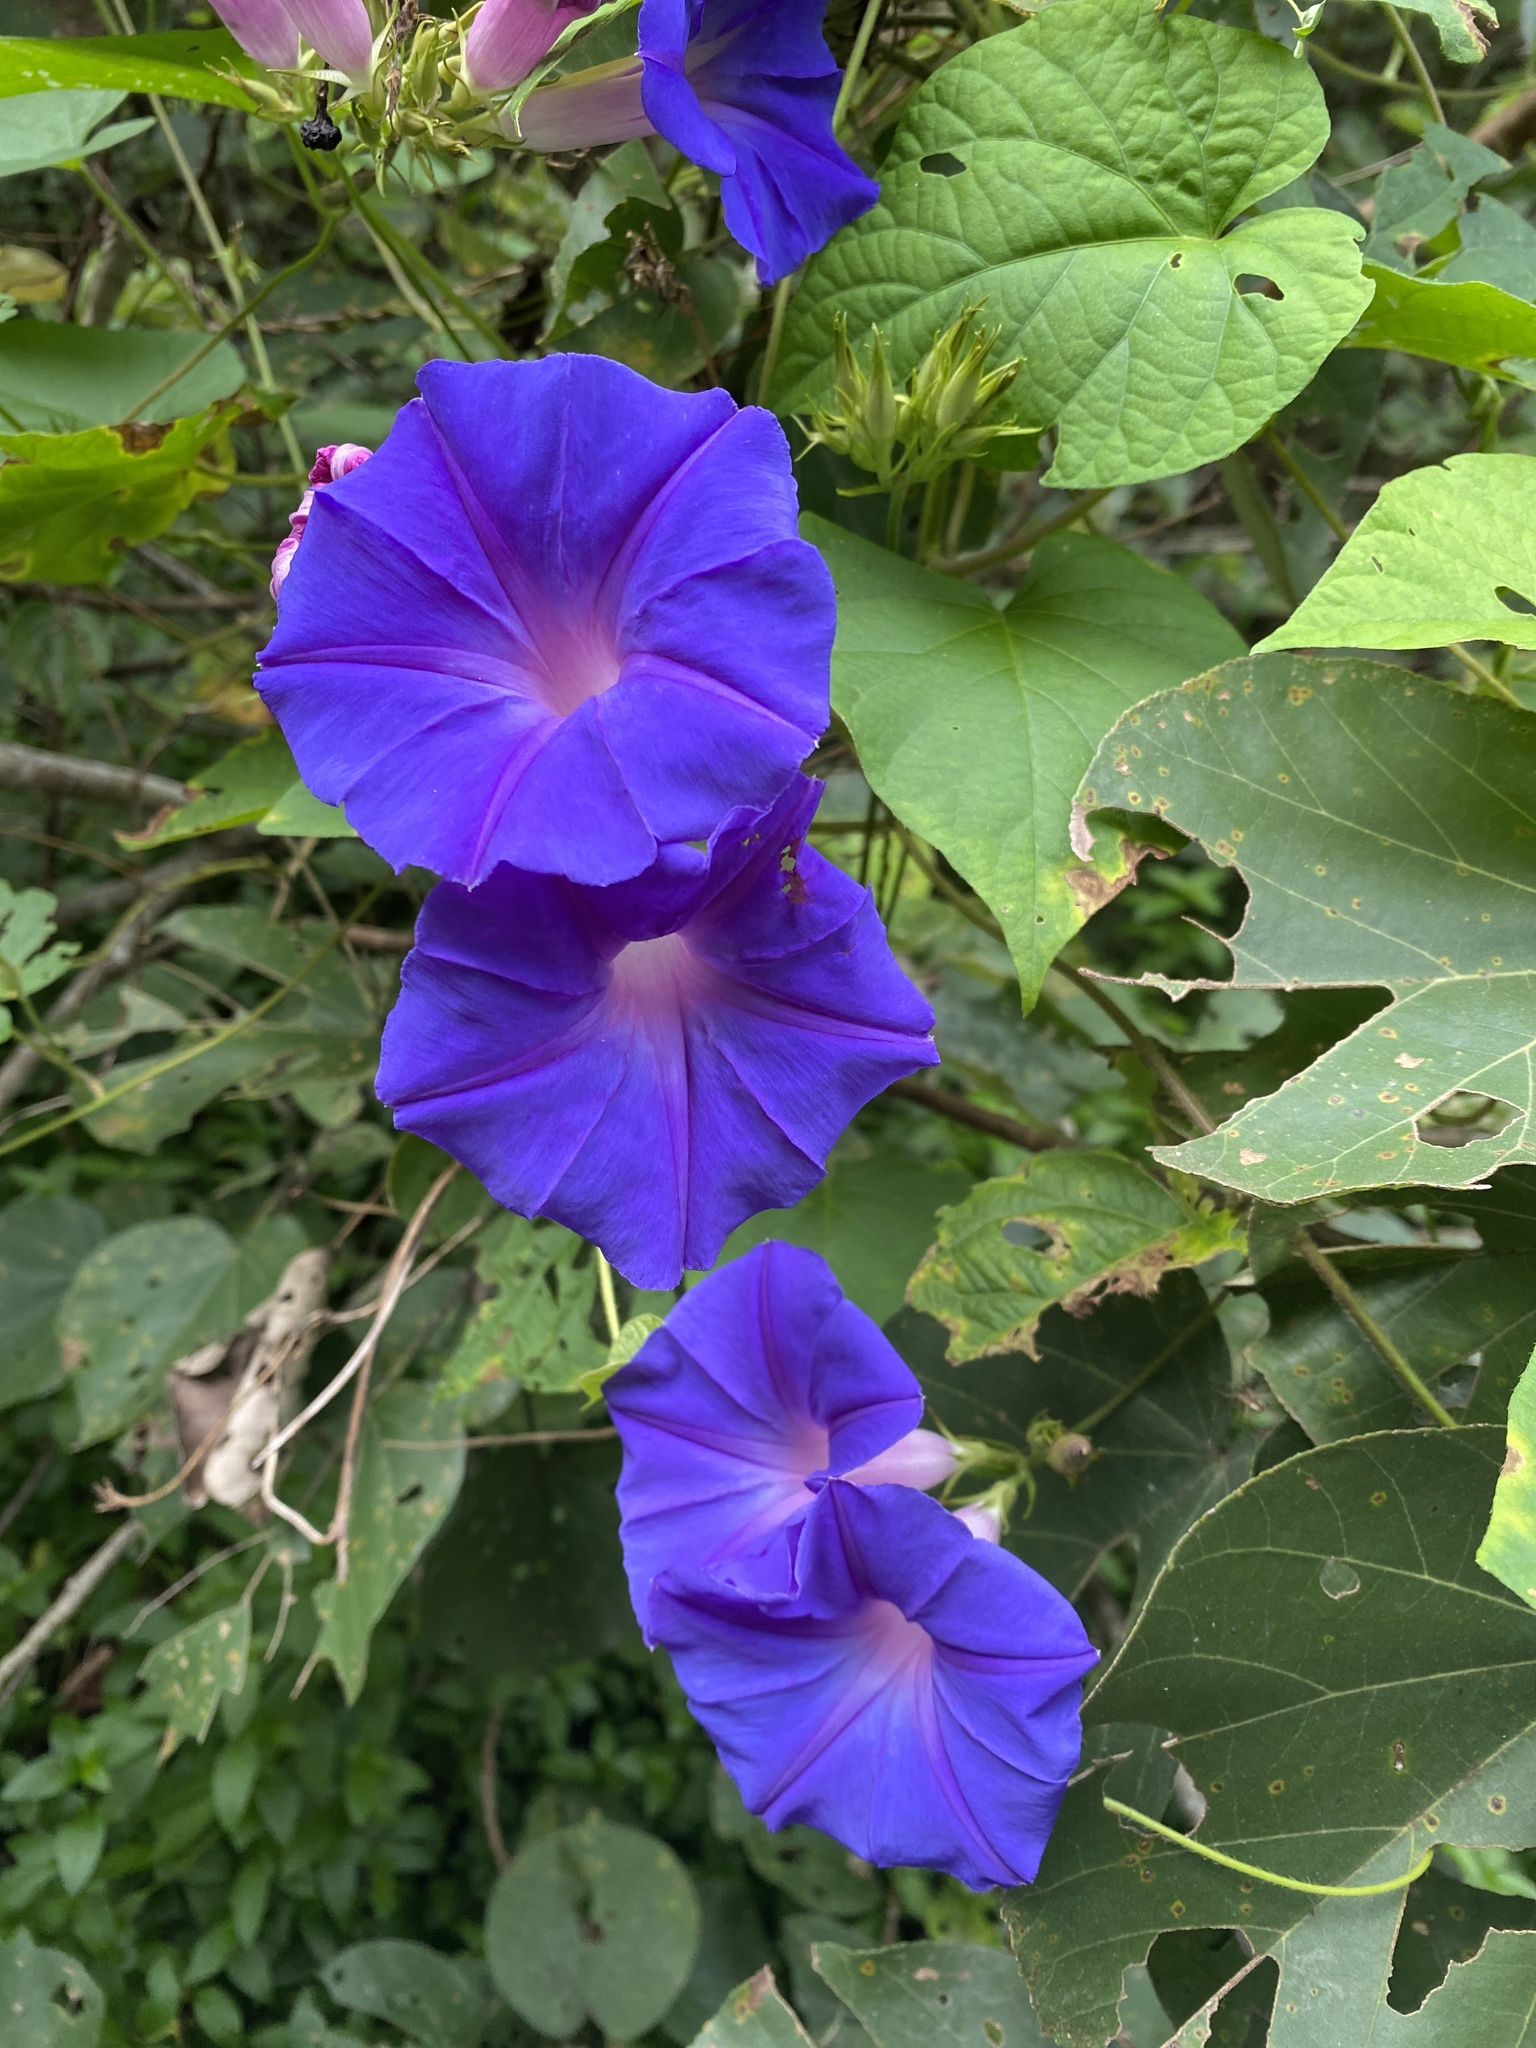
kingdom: Plantae
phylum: Tracheophyta
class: Magnoliopsida
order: Solanales
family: Convolvulaceae
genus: Ipomoea
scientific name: Ipomoea indica
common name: Blue dawnflower
